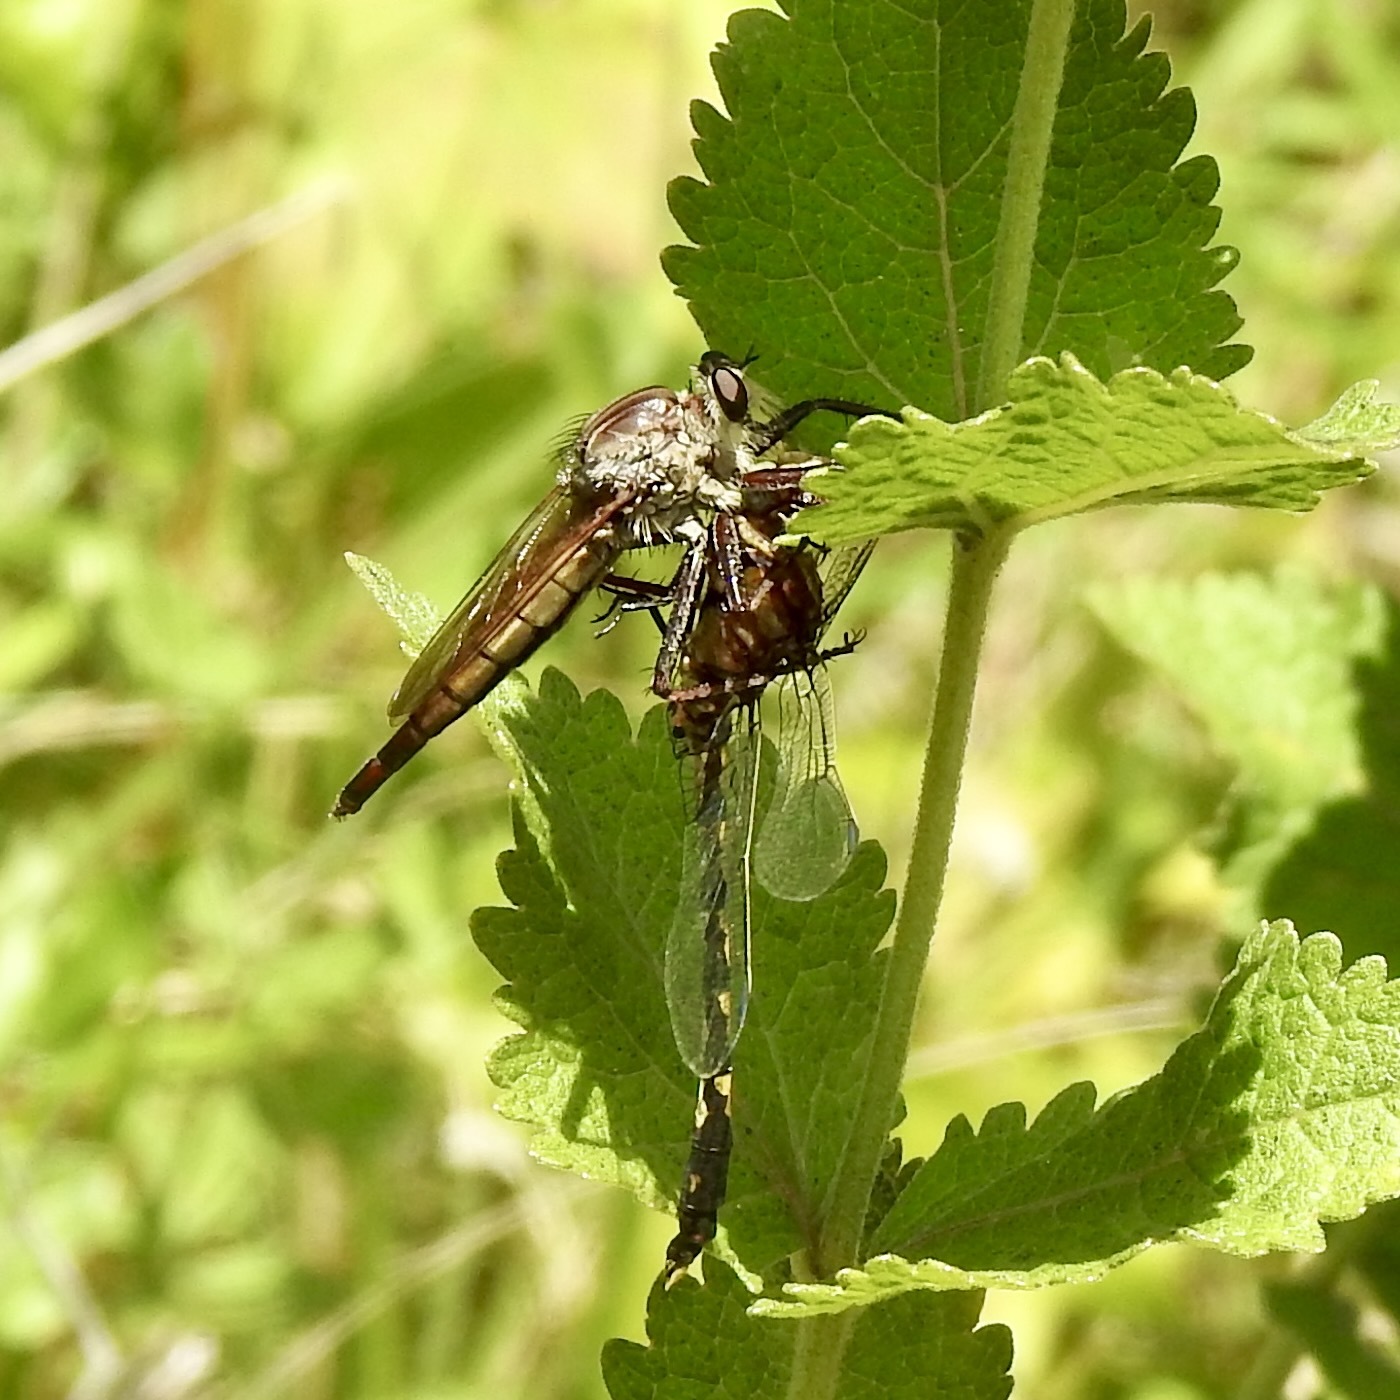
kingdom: Animalia
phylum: Arthropoda
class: Insecta
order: Odonata
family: Gomphidae
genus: Progomphus
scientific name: Progomphus obscurus
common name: Common sanddragon
